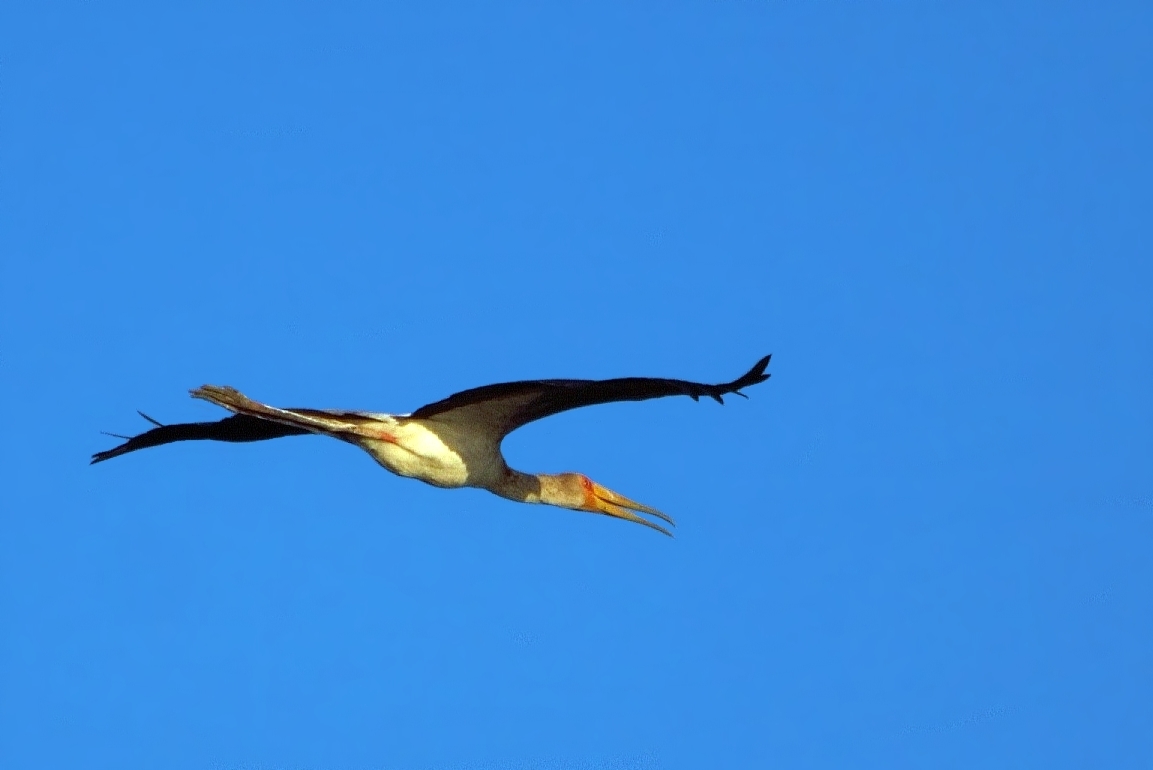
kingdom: Animalia
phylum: Chordata
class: Aves
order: Ciconiiformes
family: Ciconiidae
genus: Mycteria
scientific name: Mycteria ibis
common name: Yellow-billed stork
